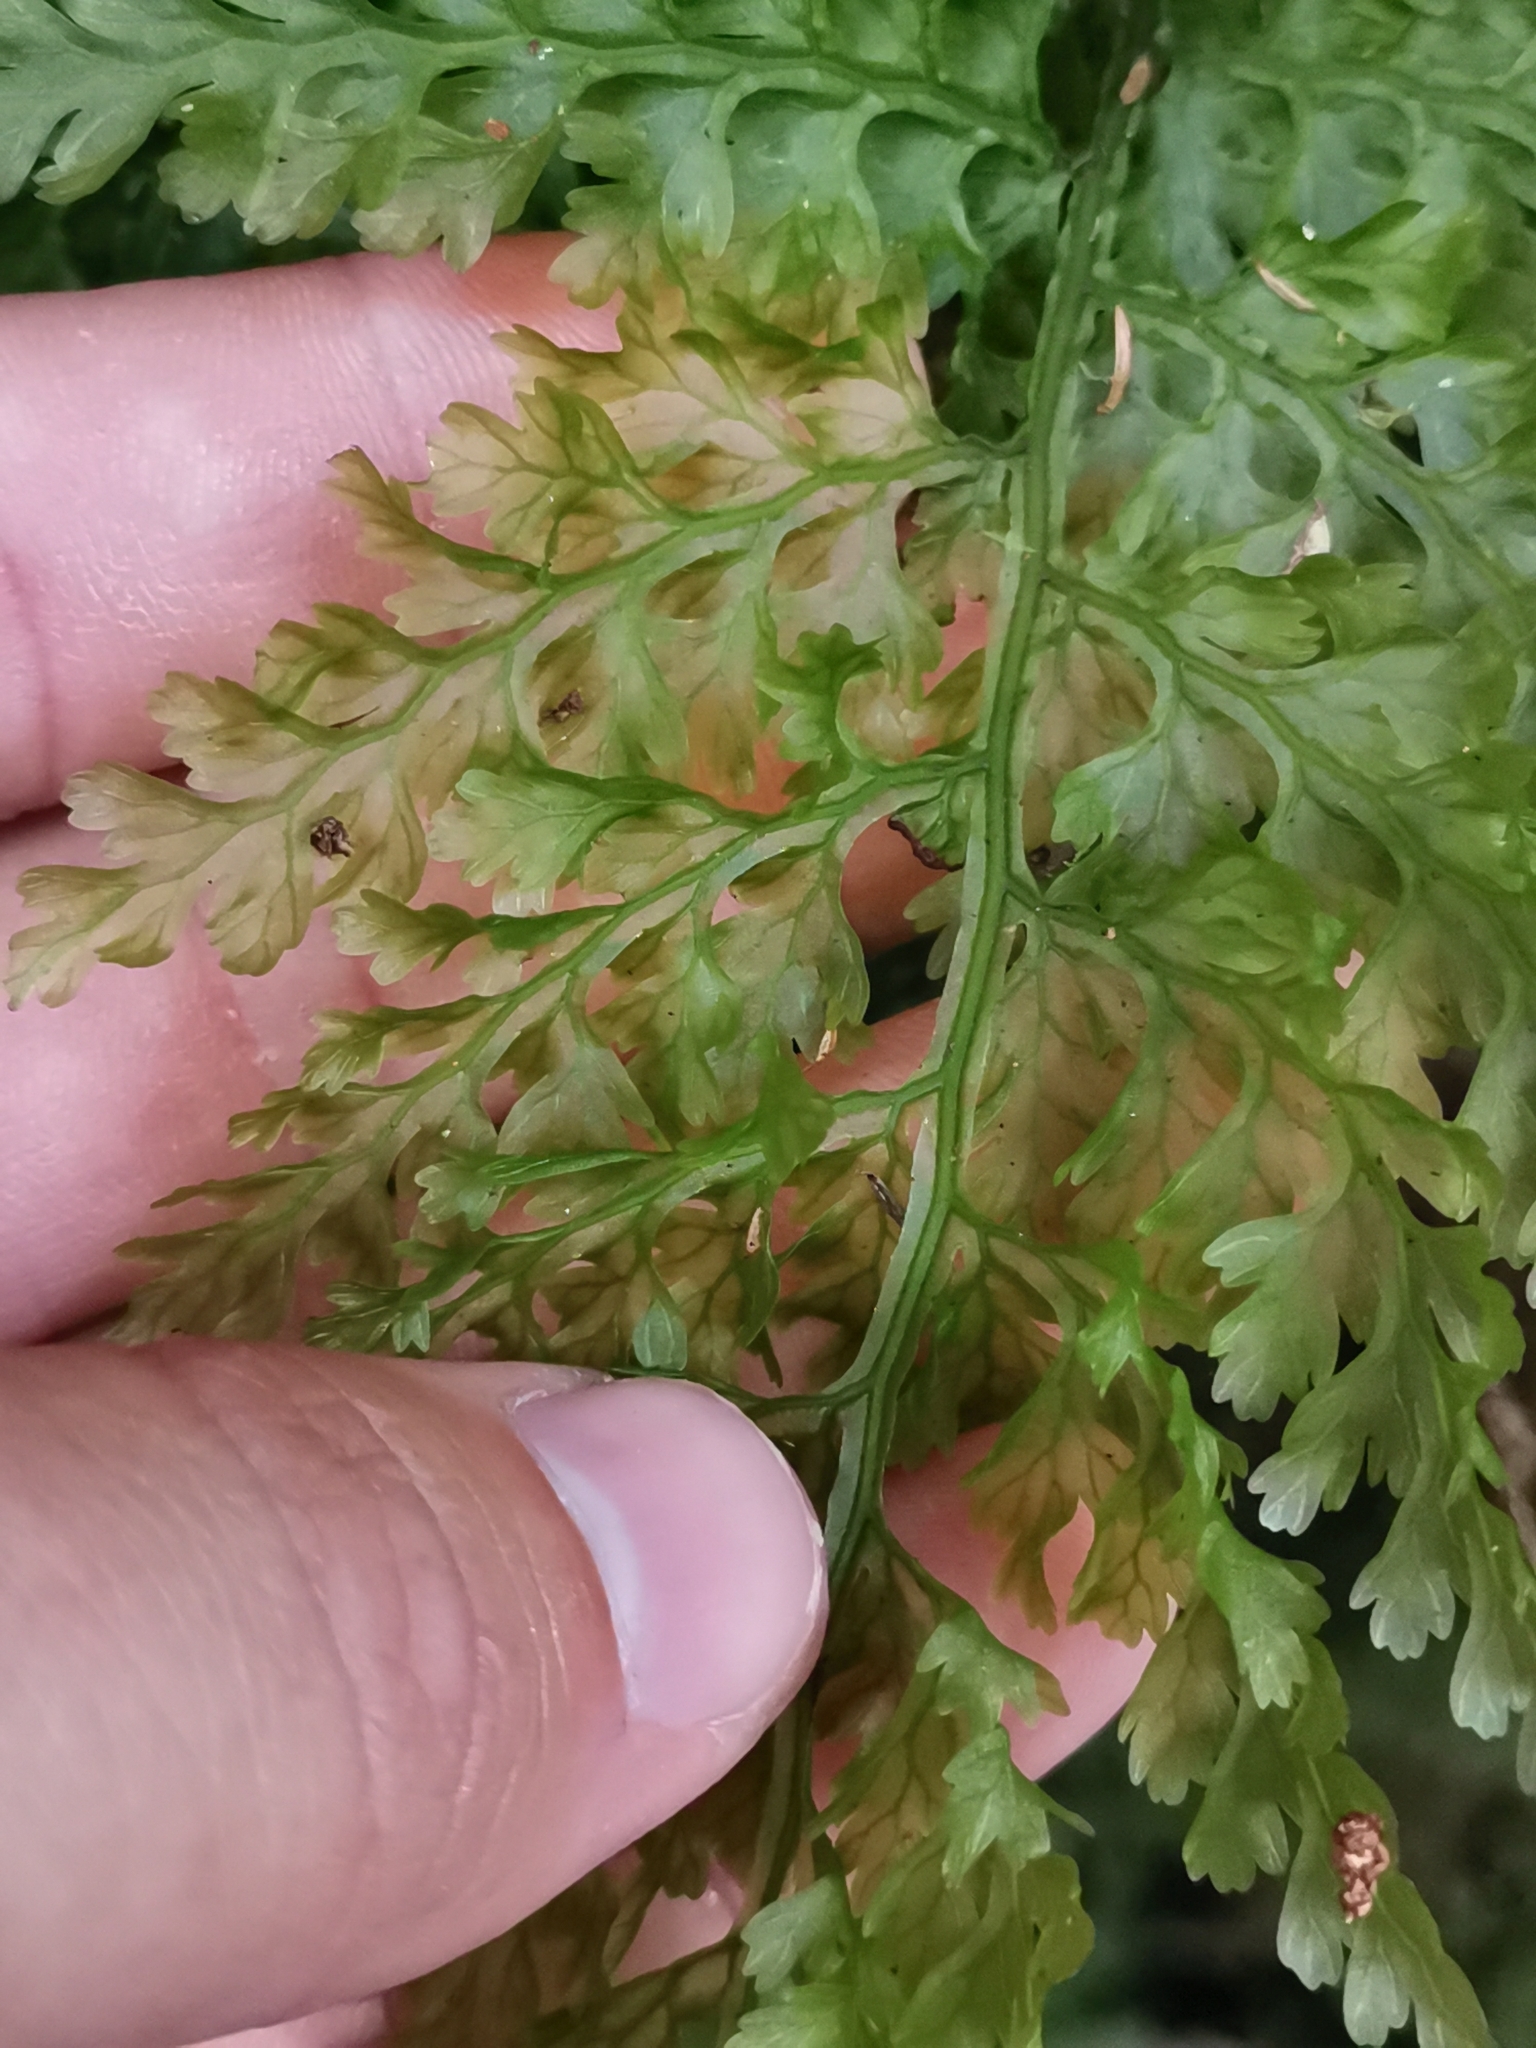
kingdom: Plantae
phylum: Tracheophyta
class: Polypodiopsida
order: Hymenophyllales
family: Hymenophyllaceae
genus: Vandenboschia
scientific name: Vandenboschia speciosa
